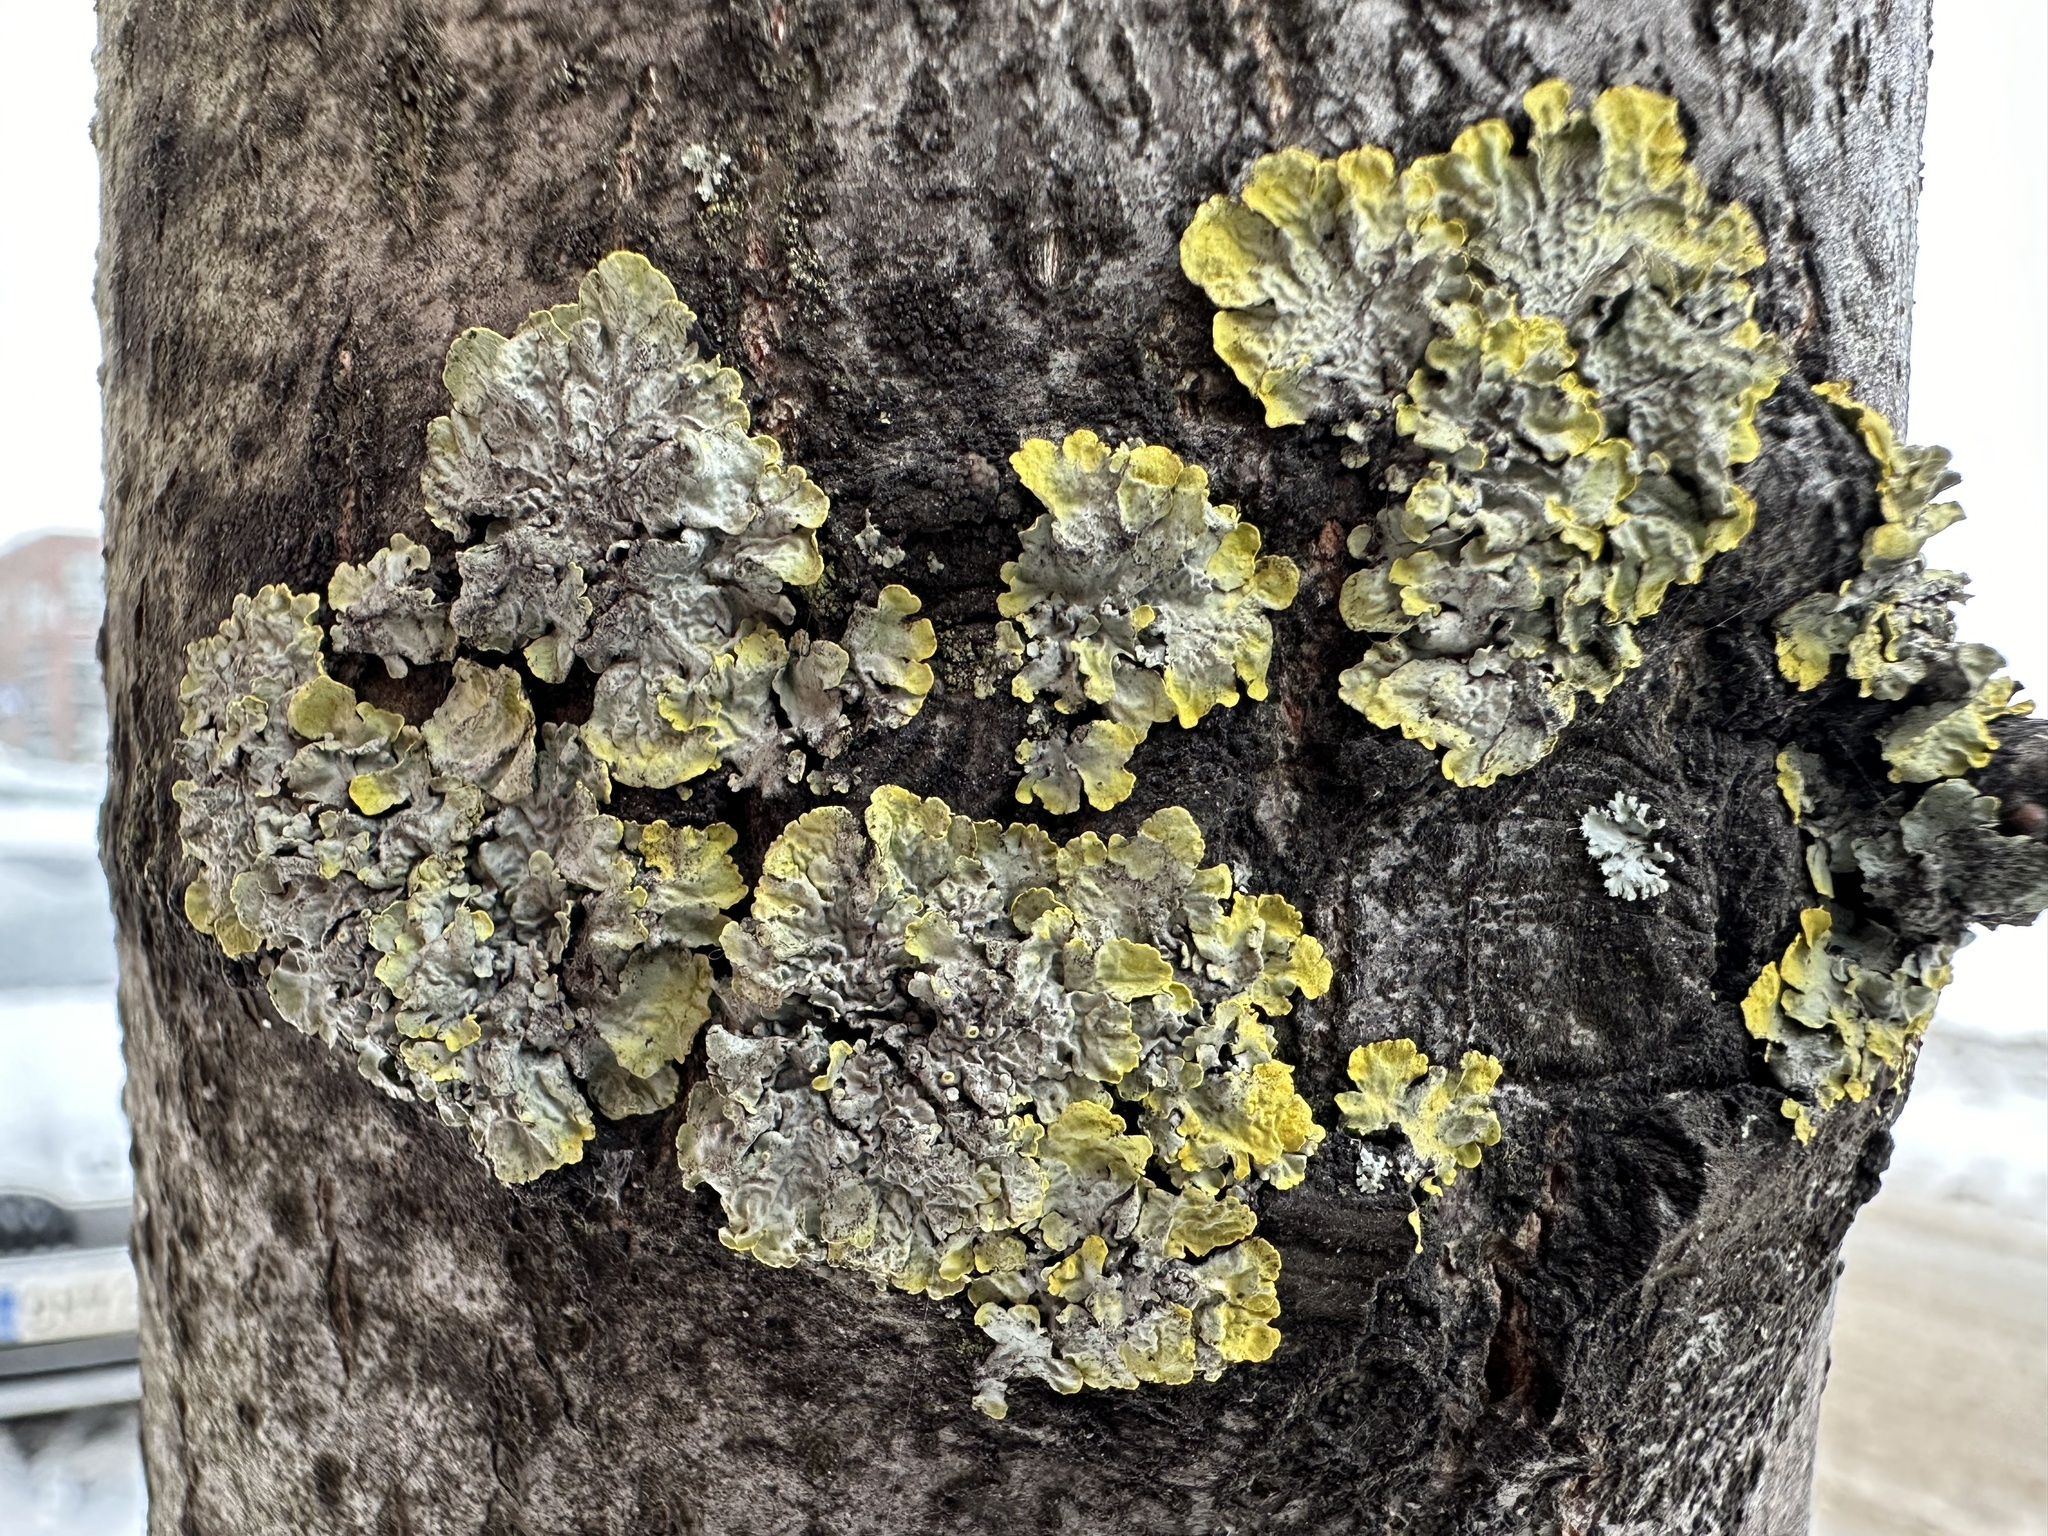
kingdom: Fungi
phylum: Ascomycota
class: Lecanoromycetes
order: Teloschistales
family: Teloschistaceae
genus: Xanthoria
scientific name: Xanthoria parietina
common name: Common orange lichen
